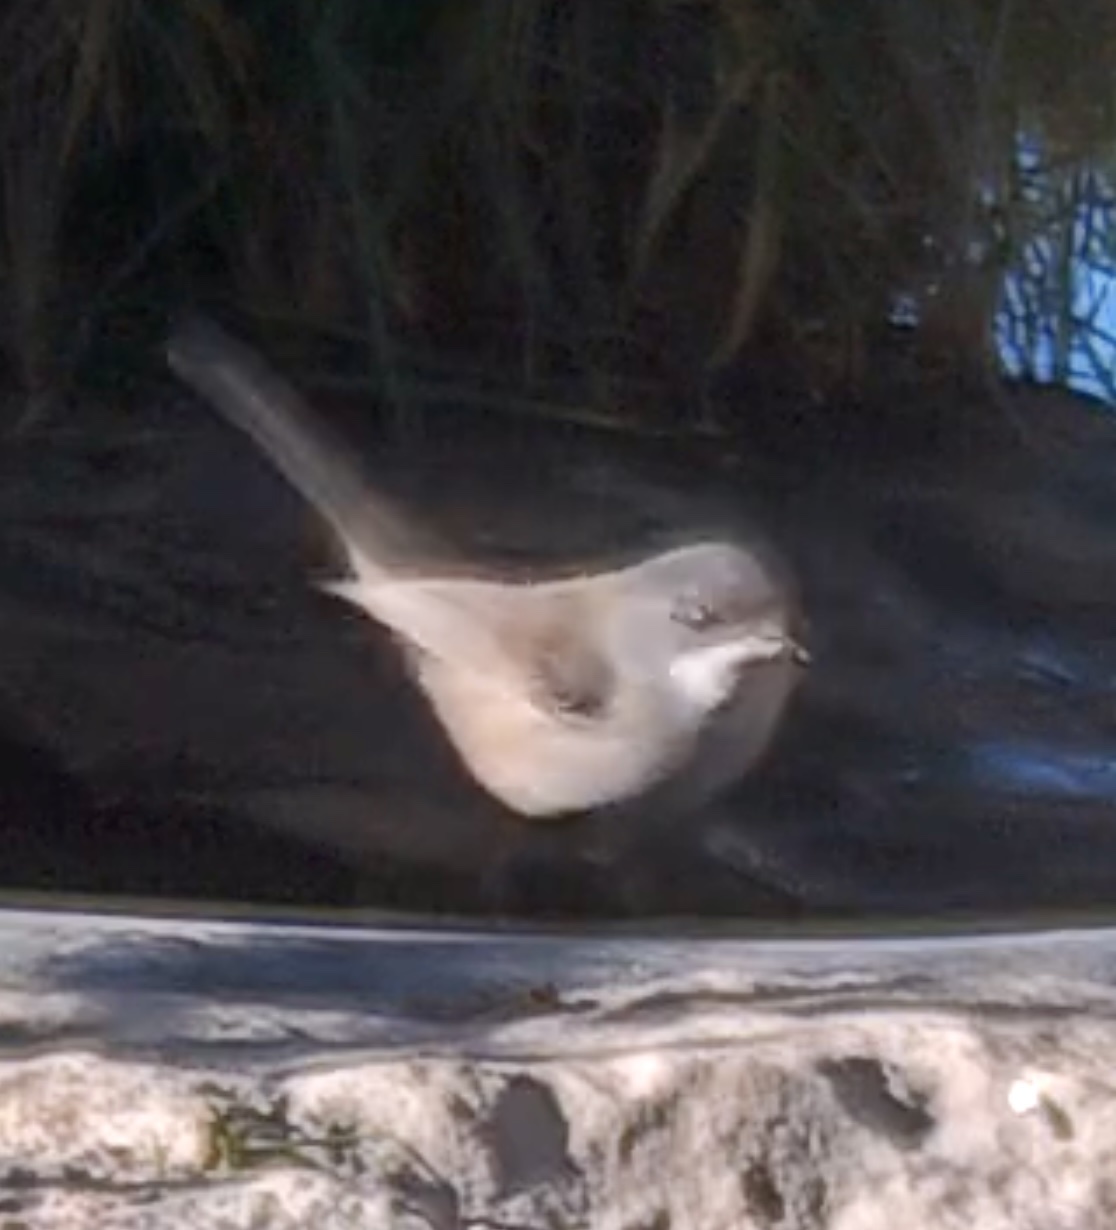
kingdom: Animalia
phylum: Chordata
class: Aves
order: Passeriformes
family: Sylviidae
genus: Curruca
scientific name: Curruca melanocephala
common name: Sardinian warbler
